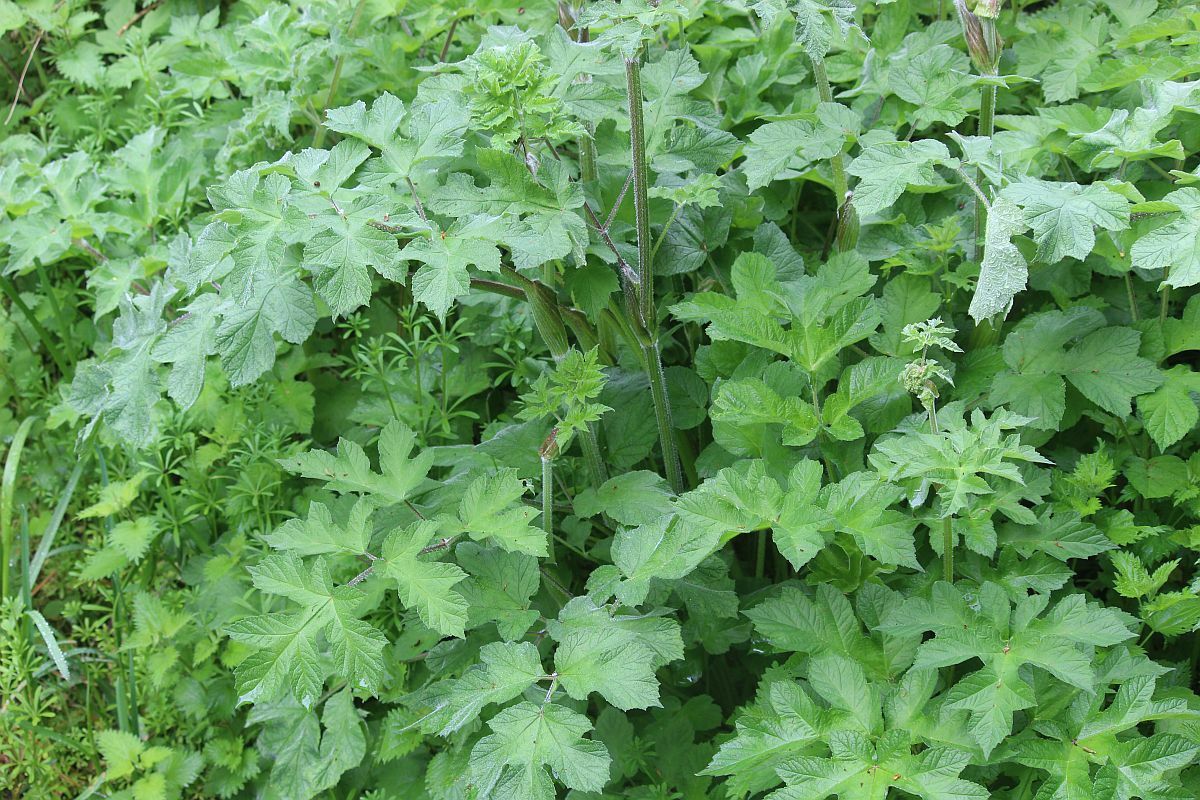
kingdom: Plantae
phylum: Tracheophyta
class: Magnoliopsida
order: Apiales
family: Apiaceae
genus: Heracleum
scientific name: Heracleum sphondylium
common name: Hogweed
